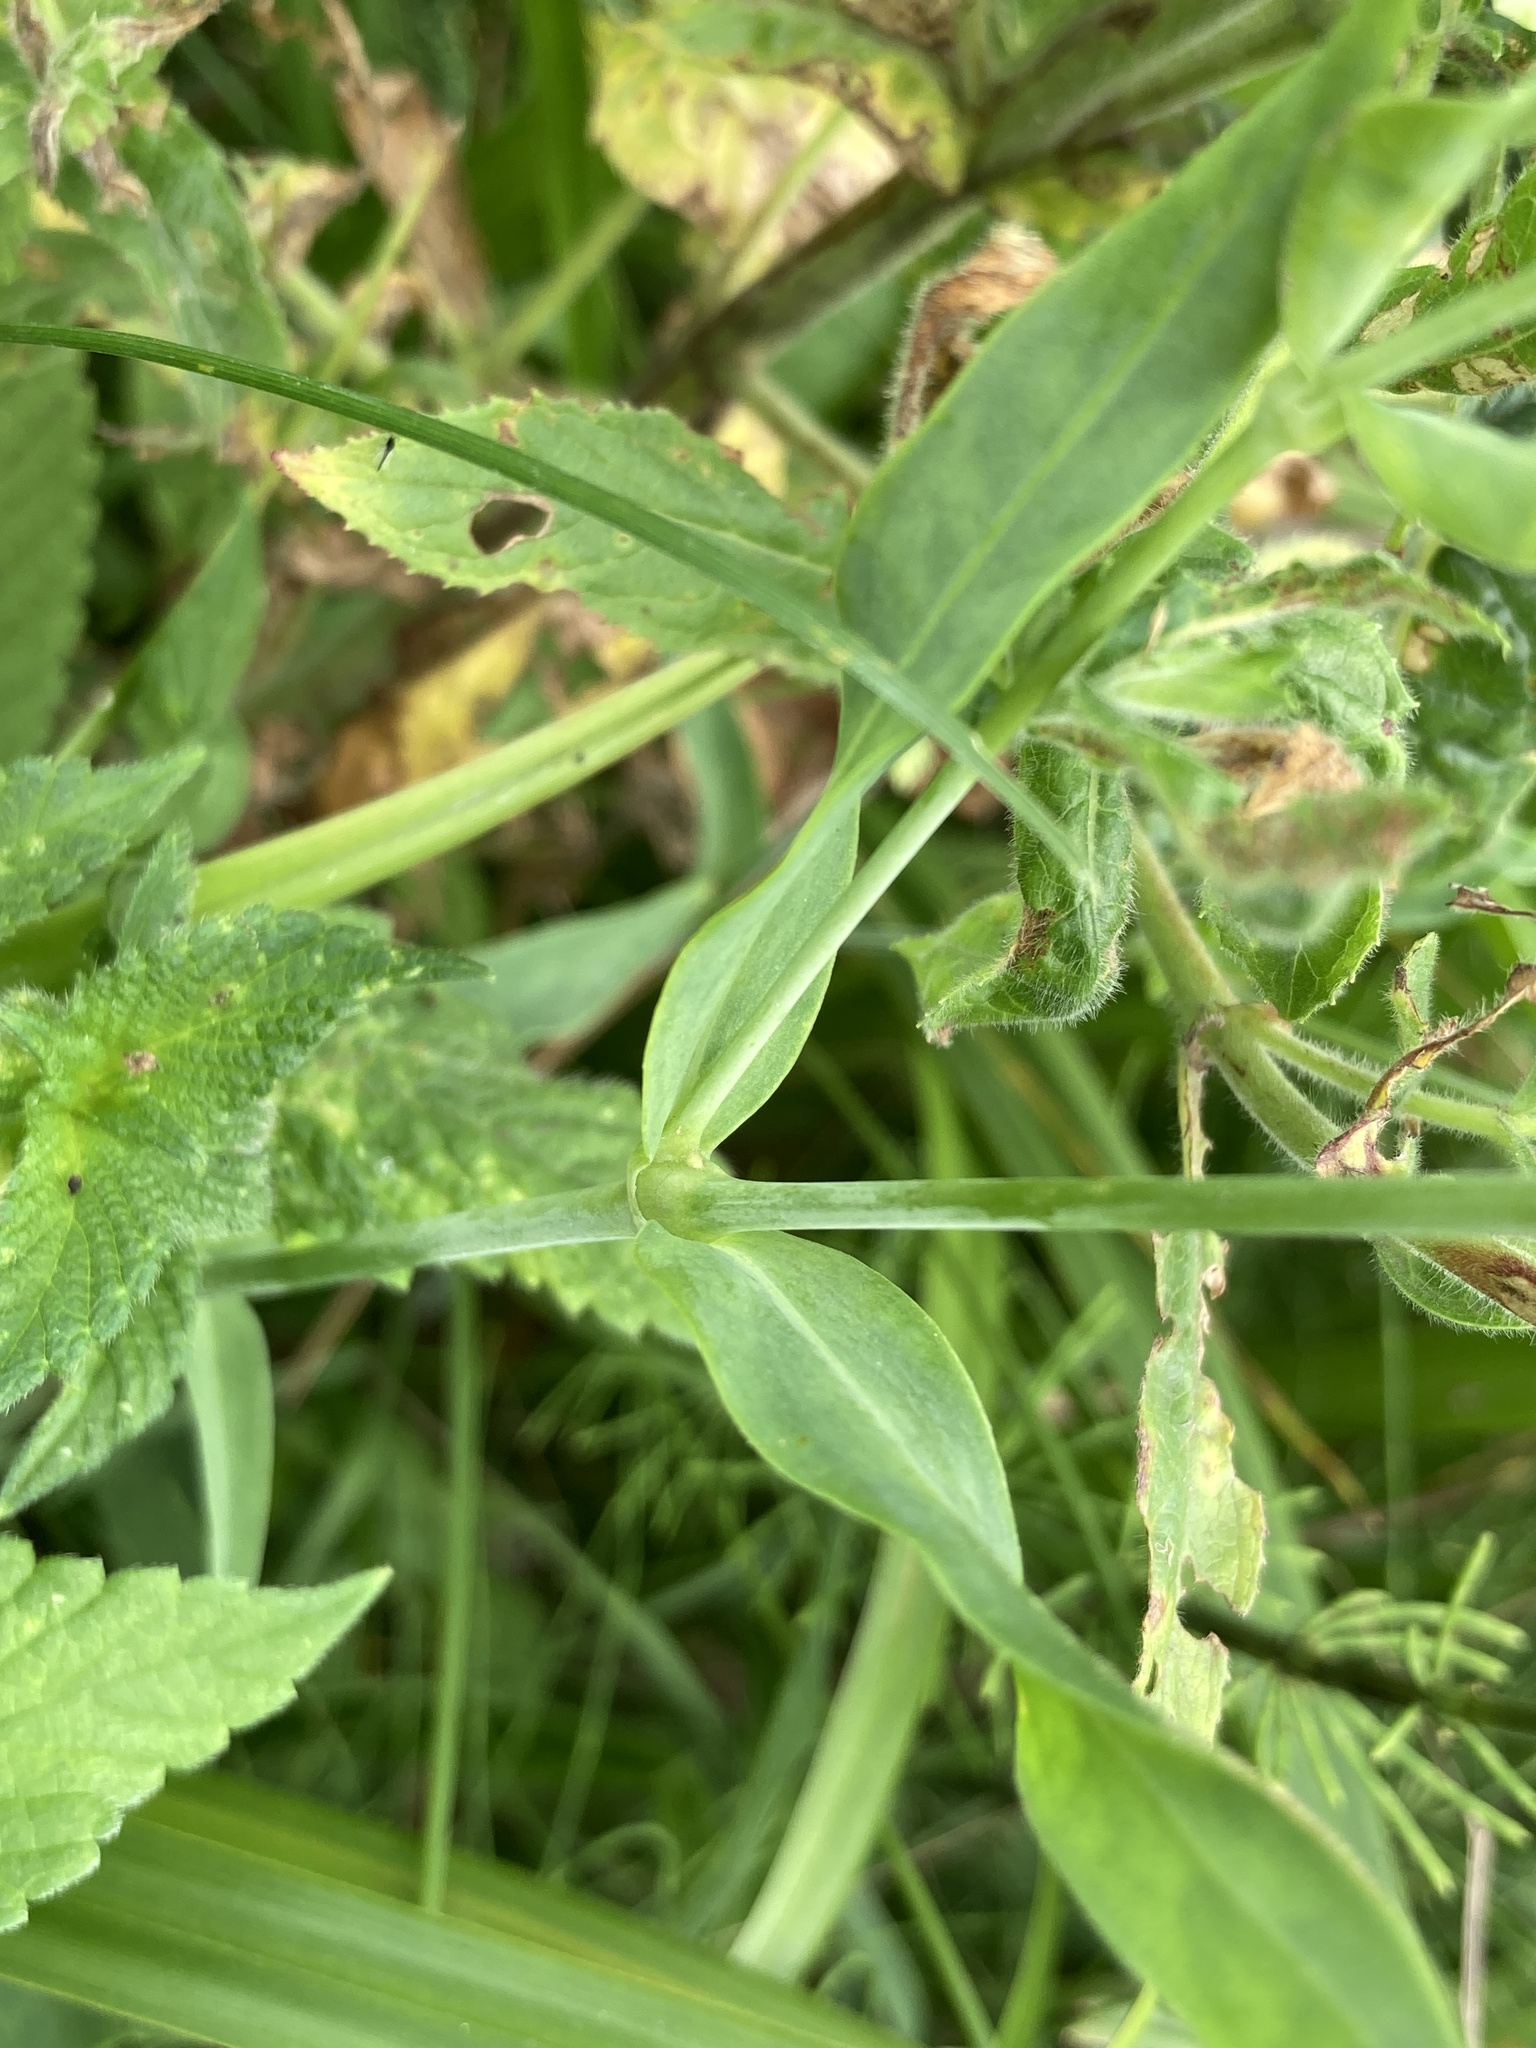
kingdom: Plantae
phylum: Tracheophyta
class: Magnoliopsida
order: Caryophyllales
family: Caryophyllaceae
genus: Silene
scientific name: Silene vulgaris
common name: Bladder campion
